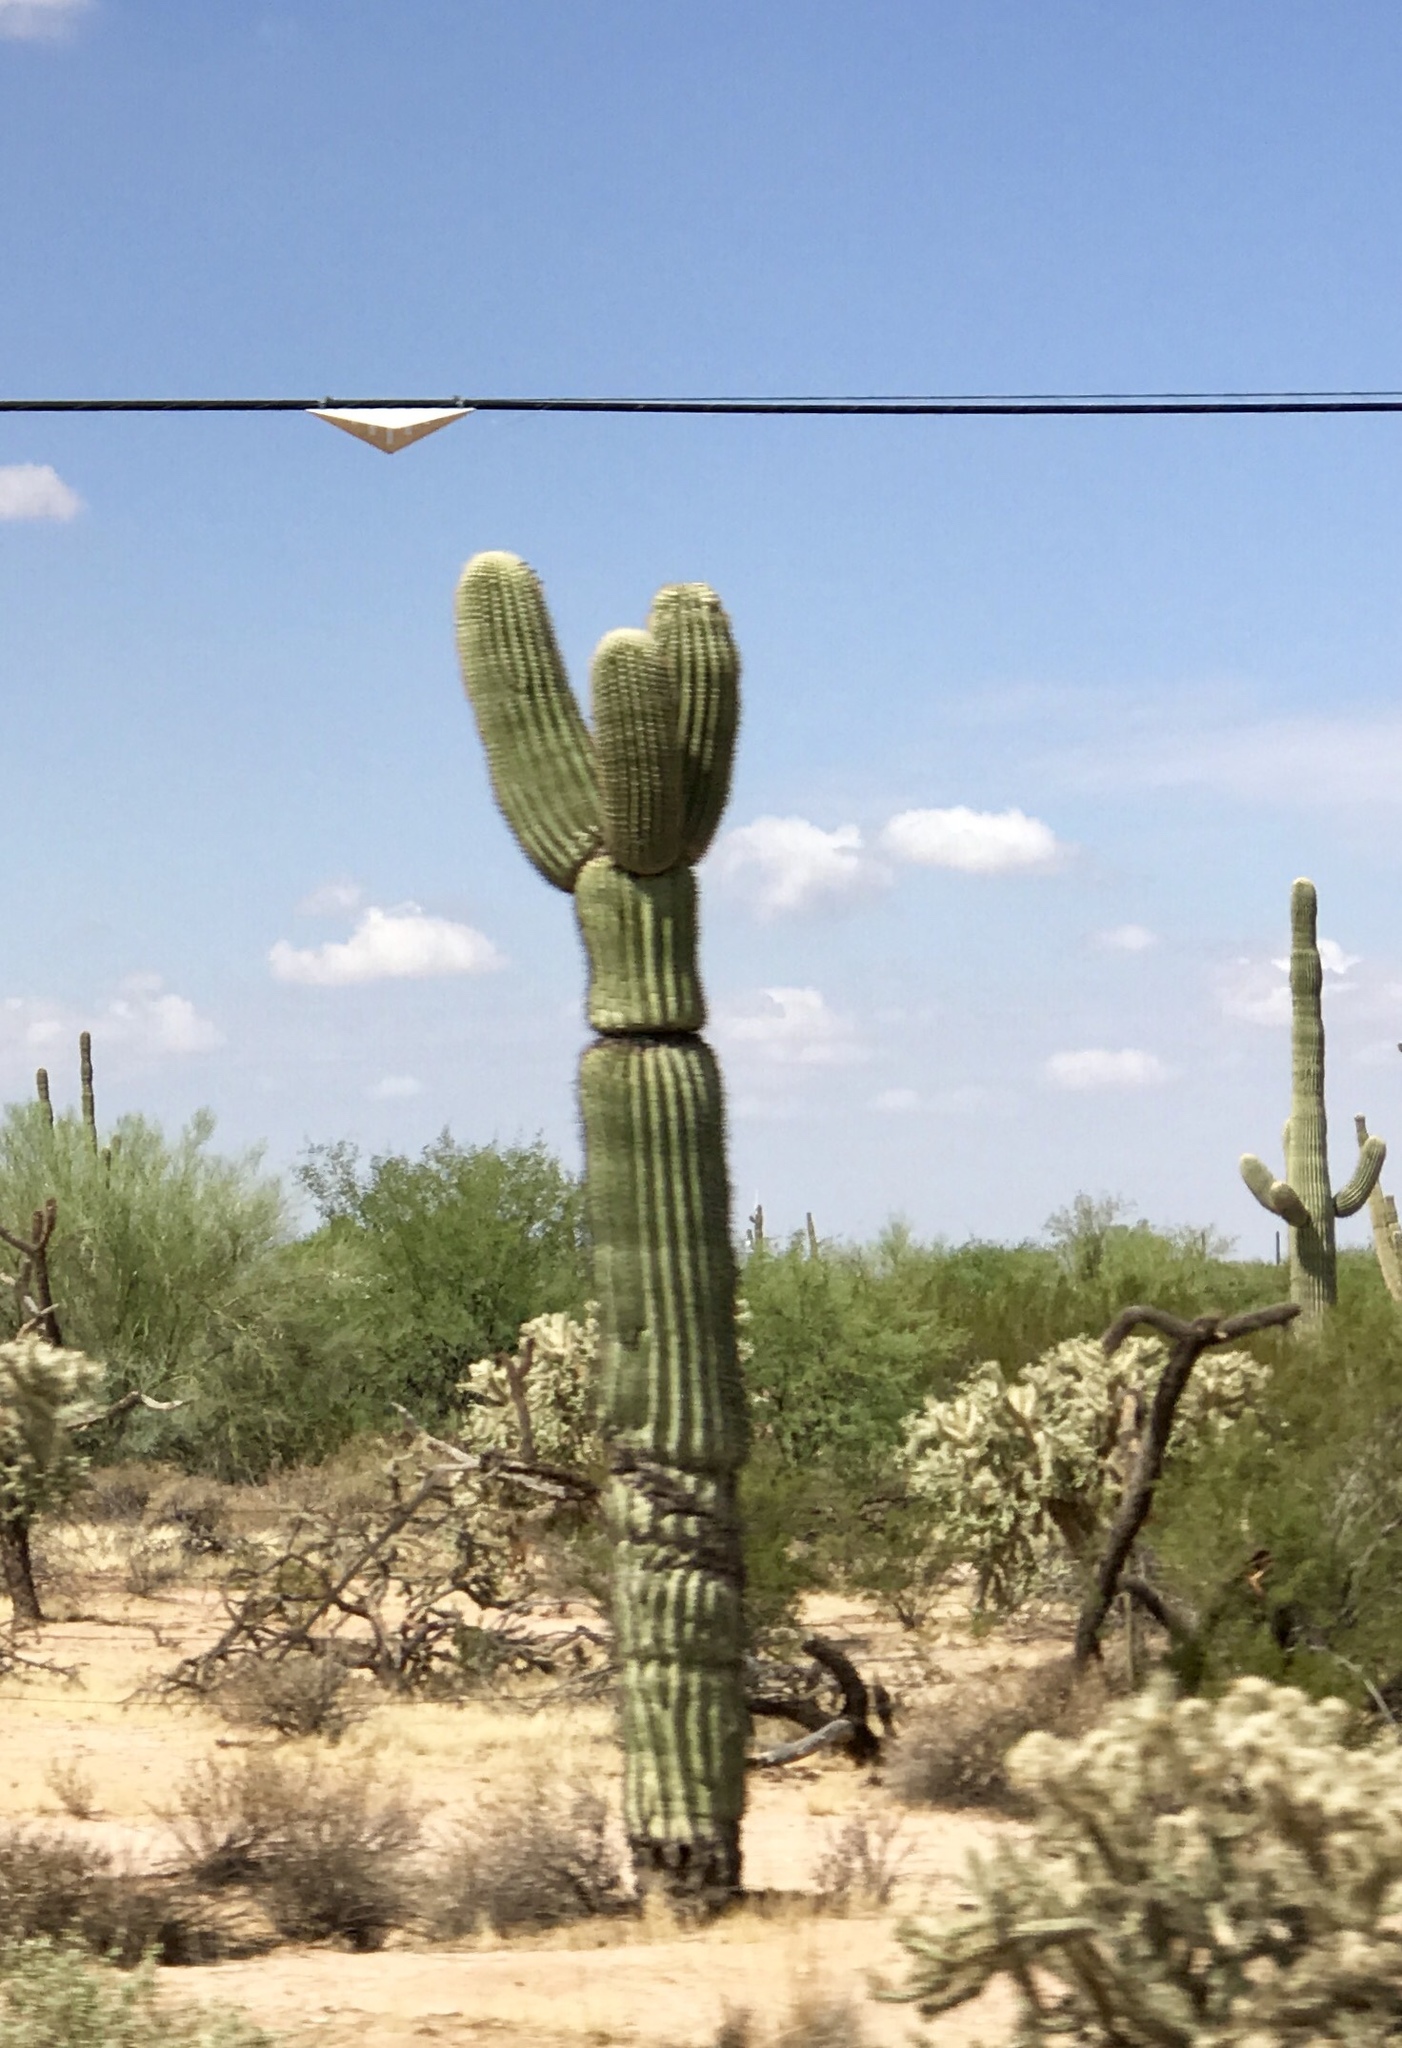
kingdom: Plantae
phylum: Tracheophyta
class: Magnoliopsida
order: Caryophyllales
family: Cactaceae
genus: Carnegiea
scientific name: Carnegiea gigantea
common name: Saguaro
